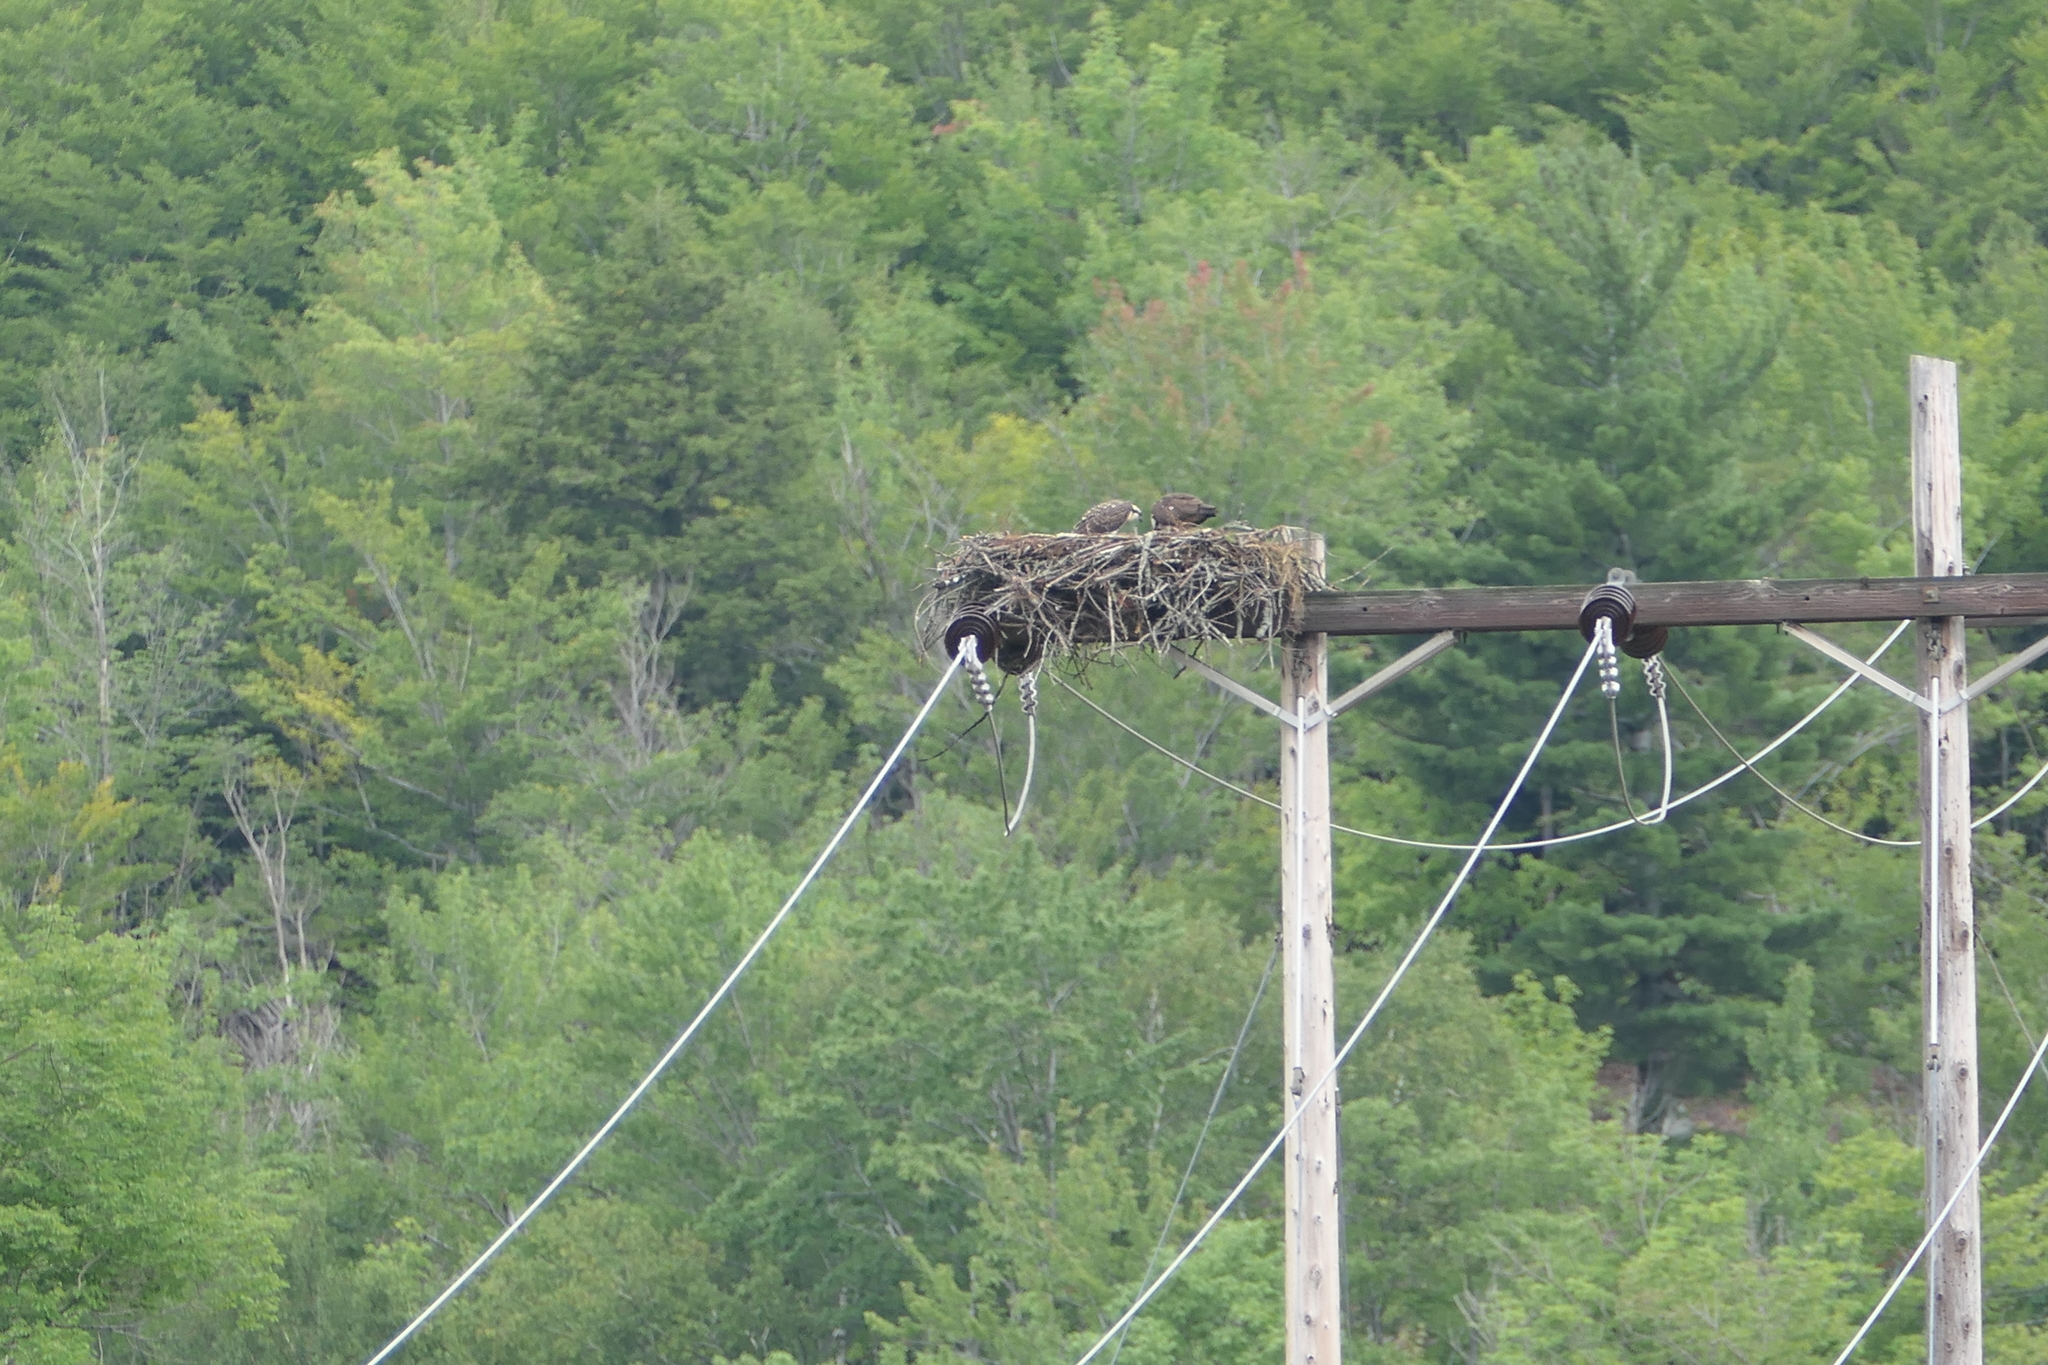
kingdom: Animalia
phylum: Chordata
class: Aves
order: Accipitriformes
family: Pandionidae
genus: Pandion
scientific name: Pandion haliaetus
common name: Osprey
